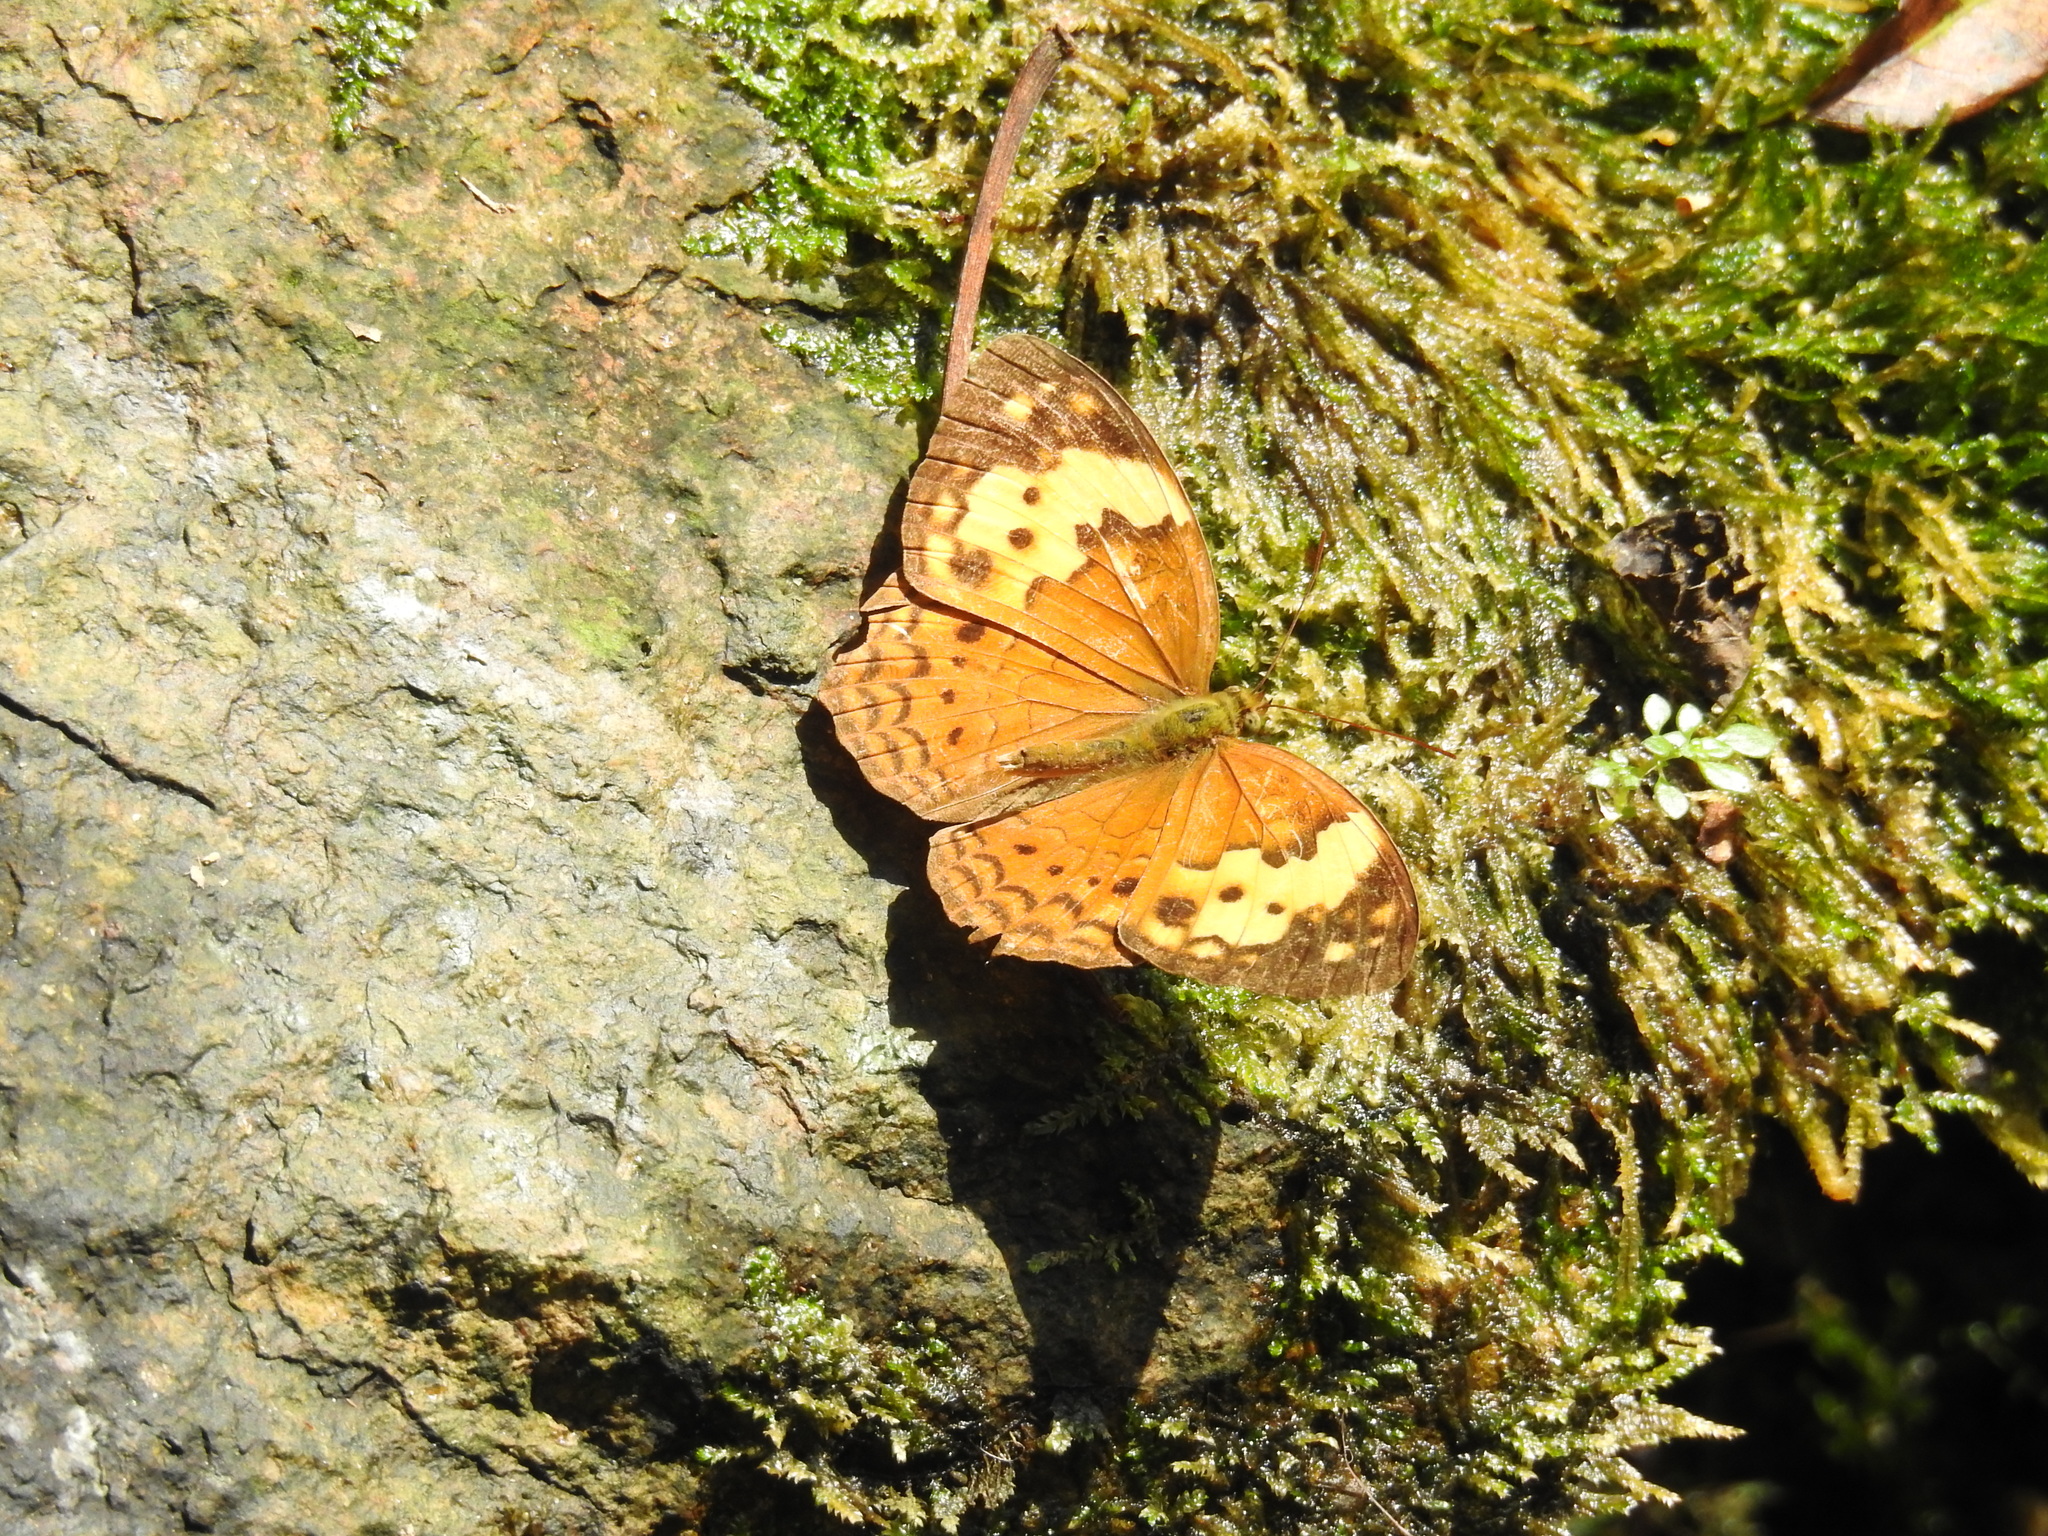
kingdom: Animalia
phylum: Arthropoda
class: Insecta
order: Lepidoptera
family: Nymphalidae
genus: Cupha
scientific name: Cupha erymanthis
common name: Rustic
